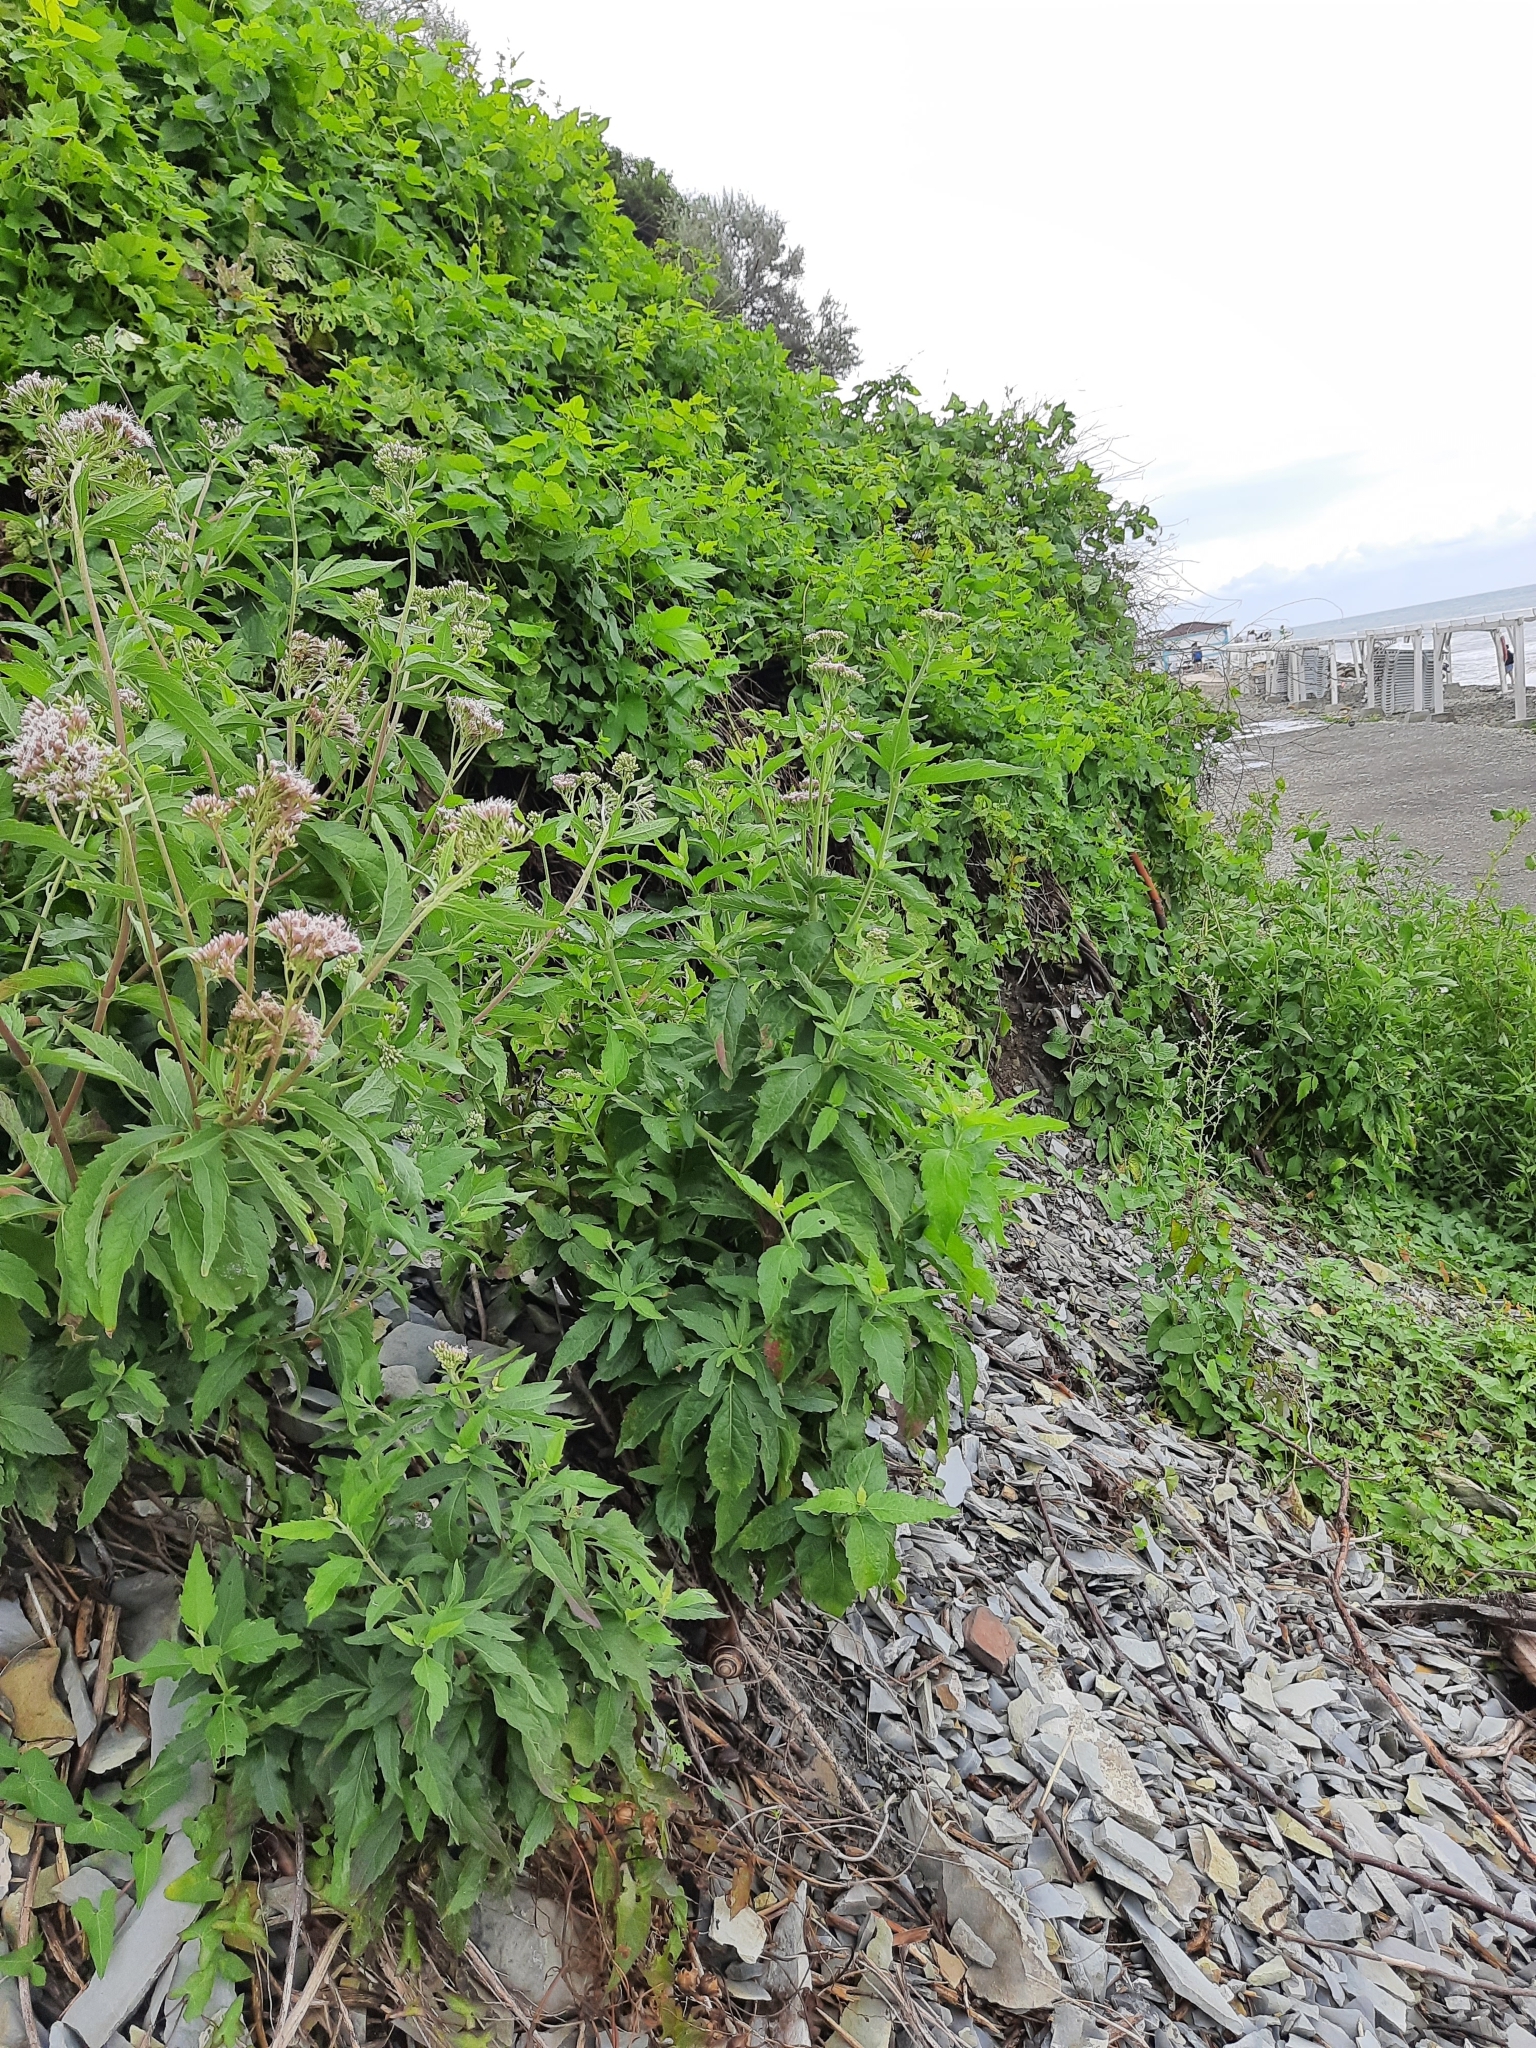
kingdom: Plantae
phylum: Tracheophyta
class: Magnoliopsida
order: Asterales
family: Asteraceae
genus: Eupatorium
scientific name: Eupatorium cannabinum
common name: Hemp-agrimony
